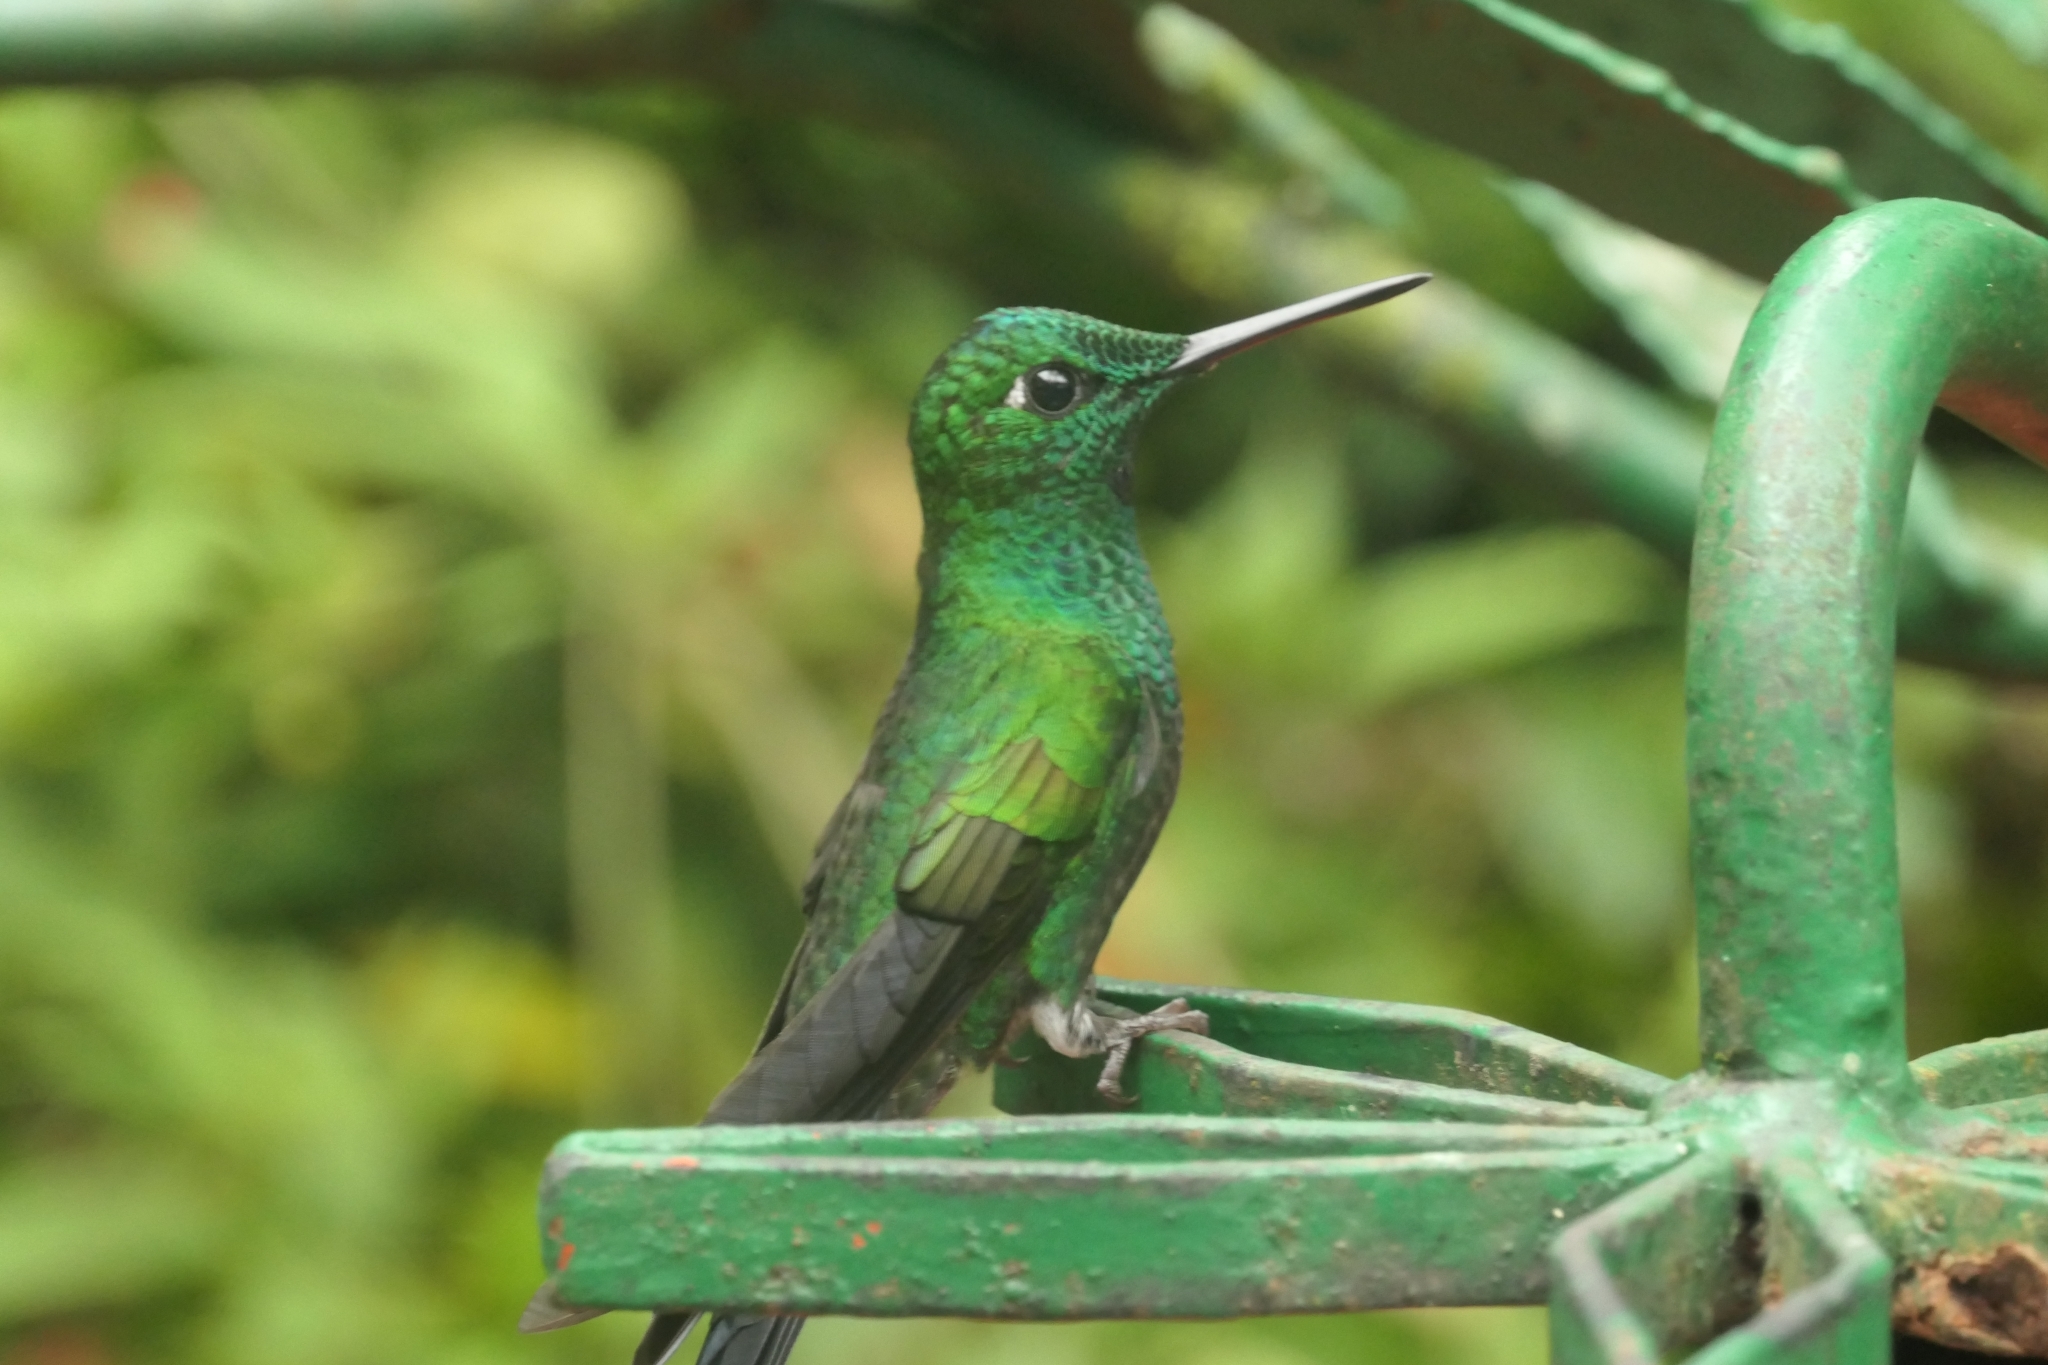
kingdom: Animalia
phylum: Chordata
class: Aves
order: Apodiformes
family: Trochilidae
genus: Heliodoxa
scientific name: Heliodoxa jacula
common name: Green-crowned brilliant
